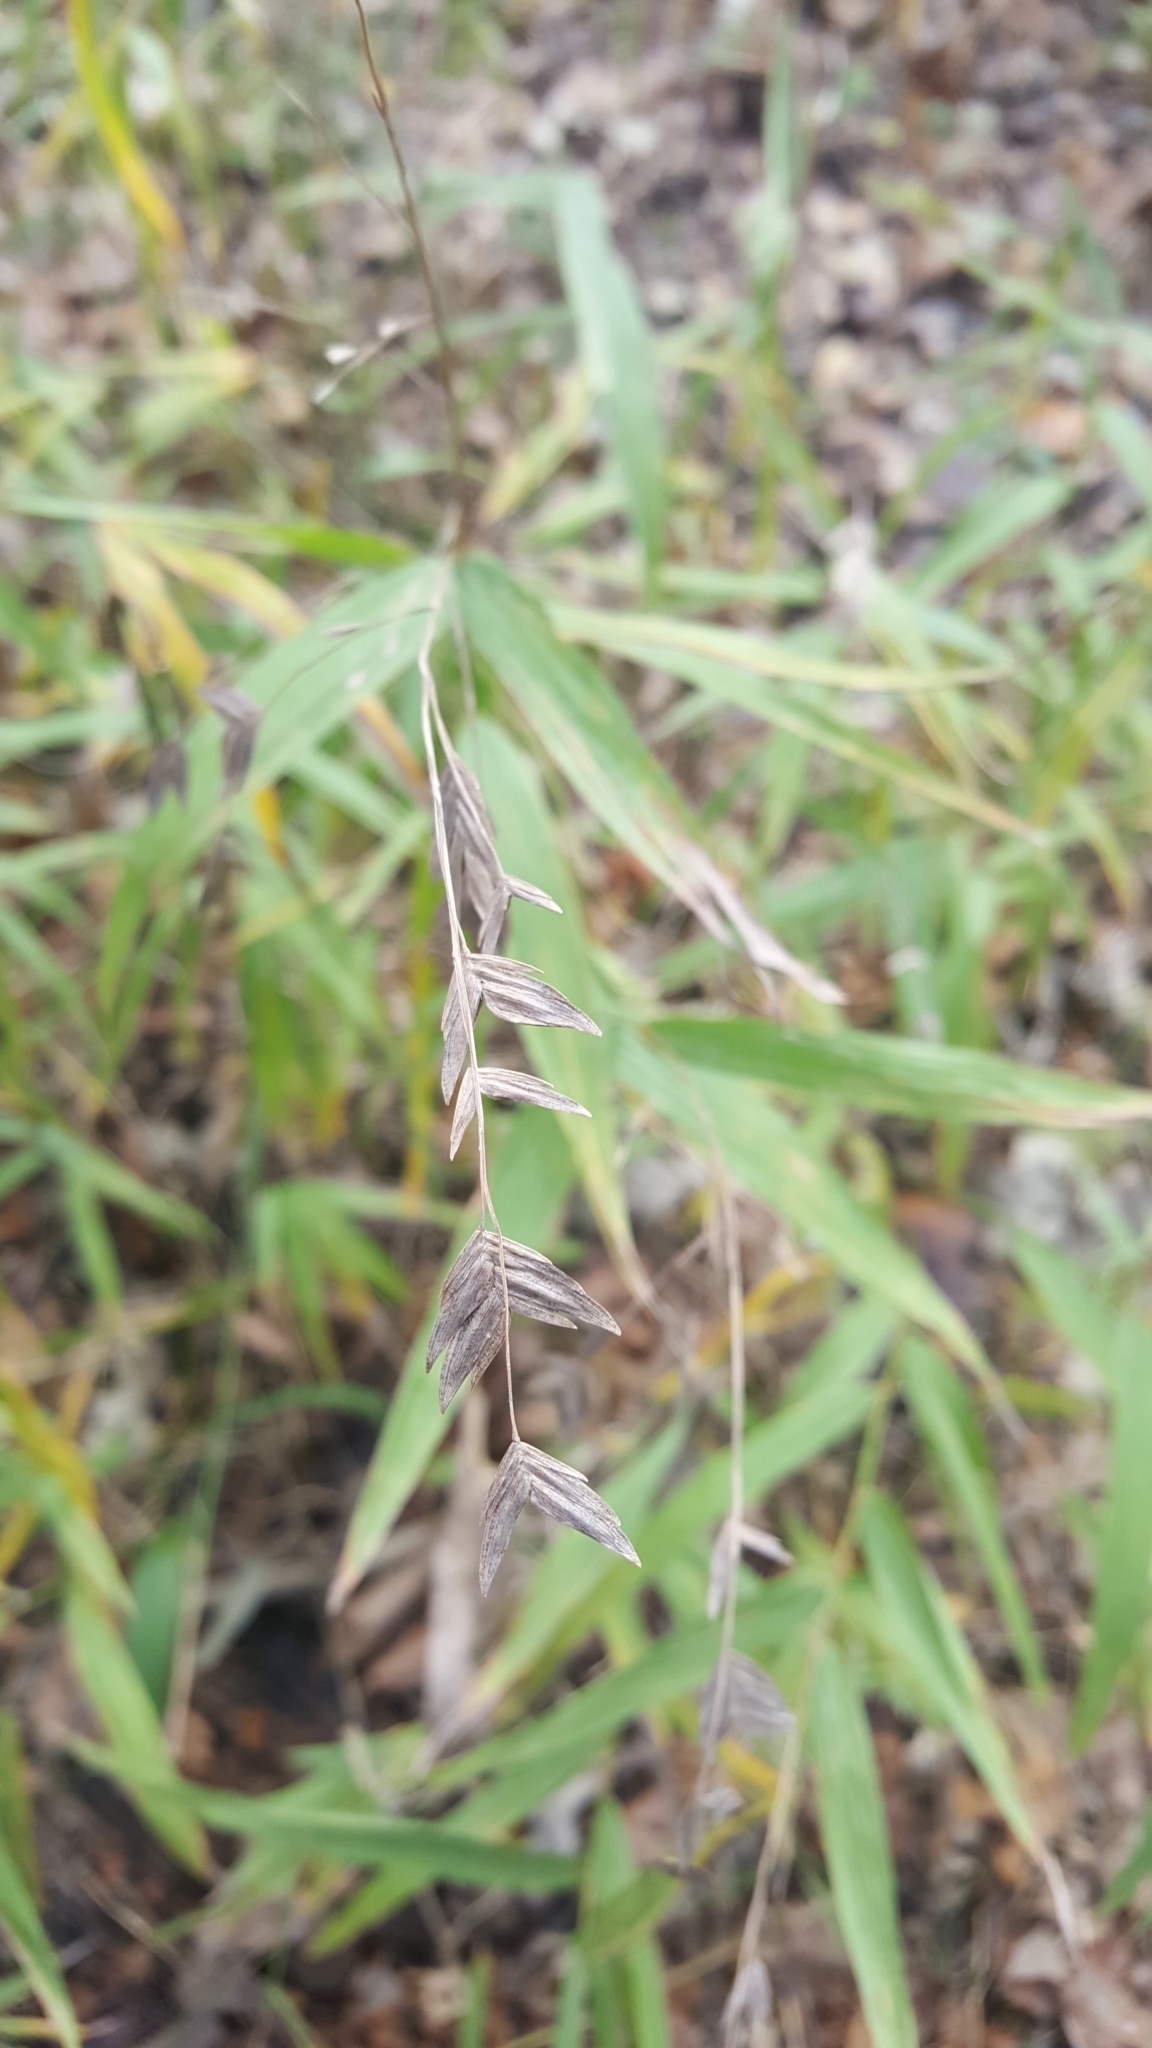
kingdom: Plantae
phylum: Tracheophyta
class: Liliopsida
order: Poales
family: Poaceae
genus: Chasmanthium
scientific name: Chasmanthium latifolium
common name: Broad-leaved chasmanthium
